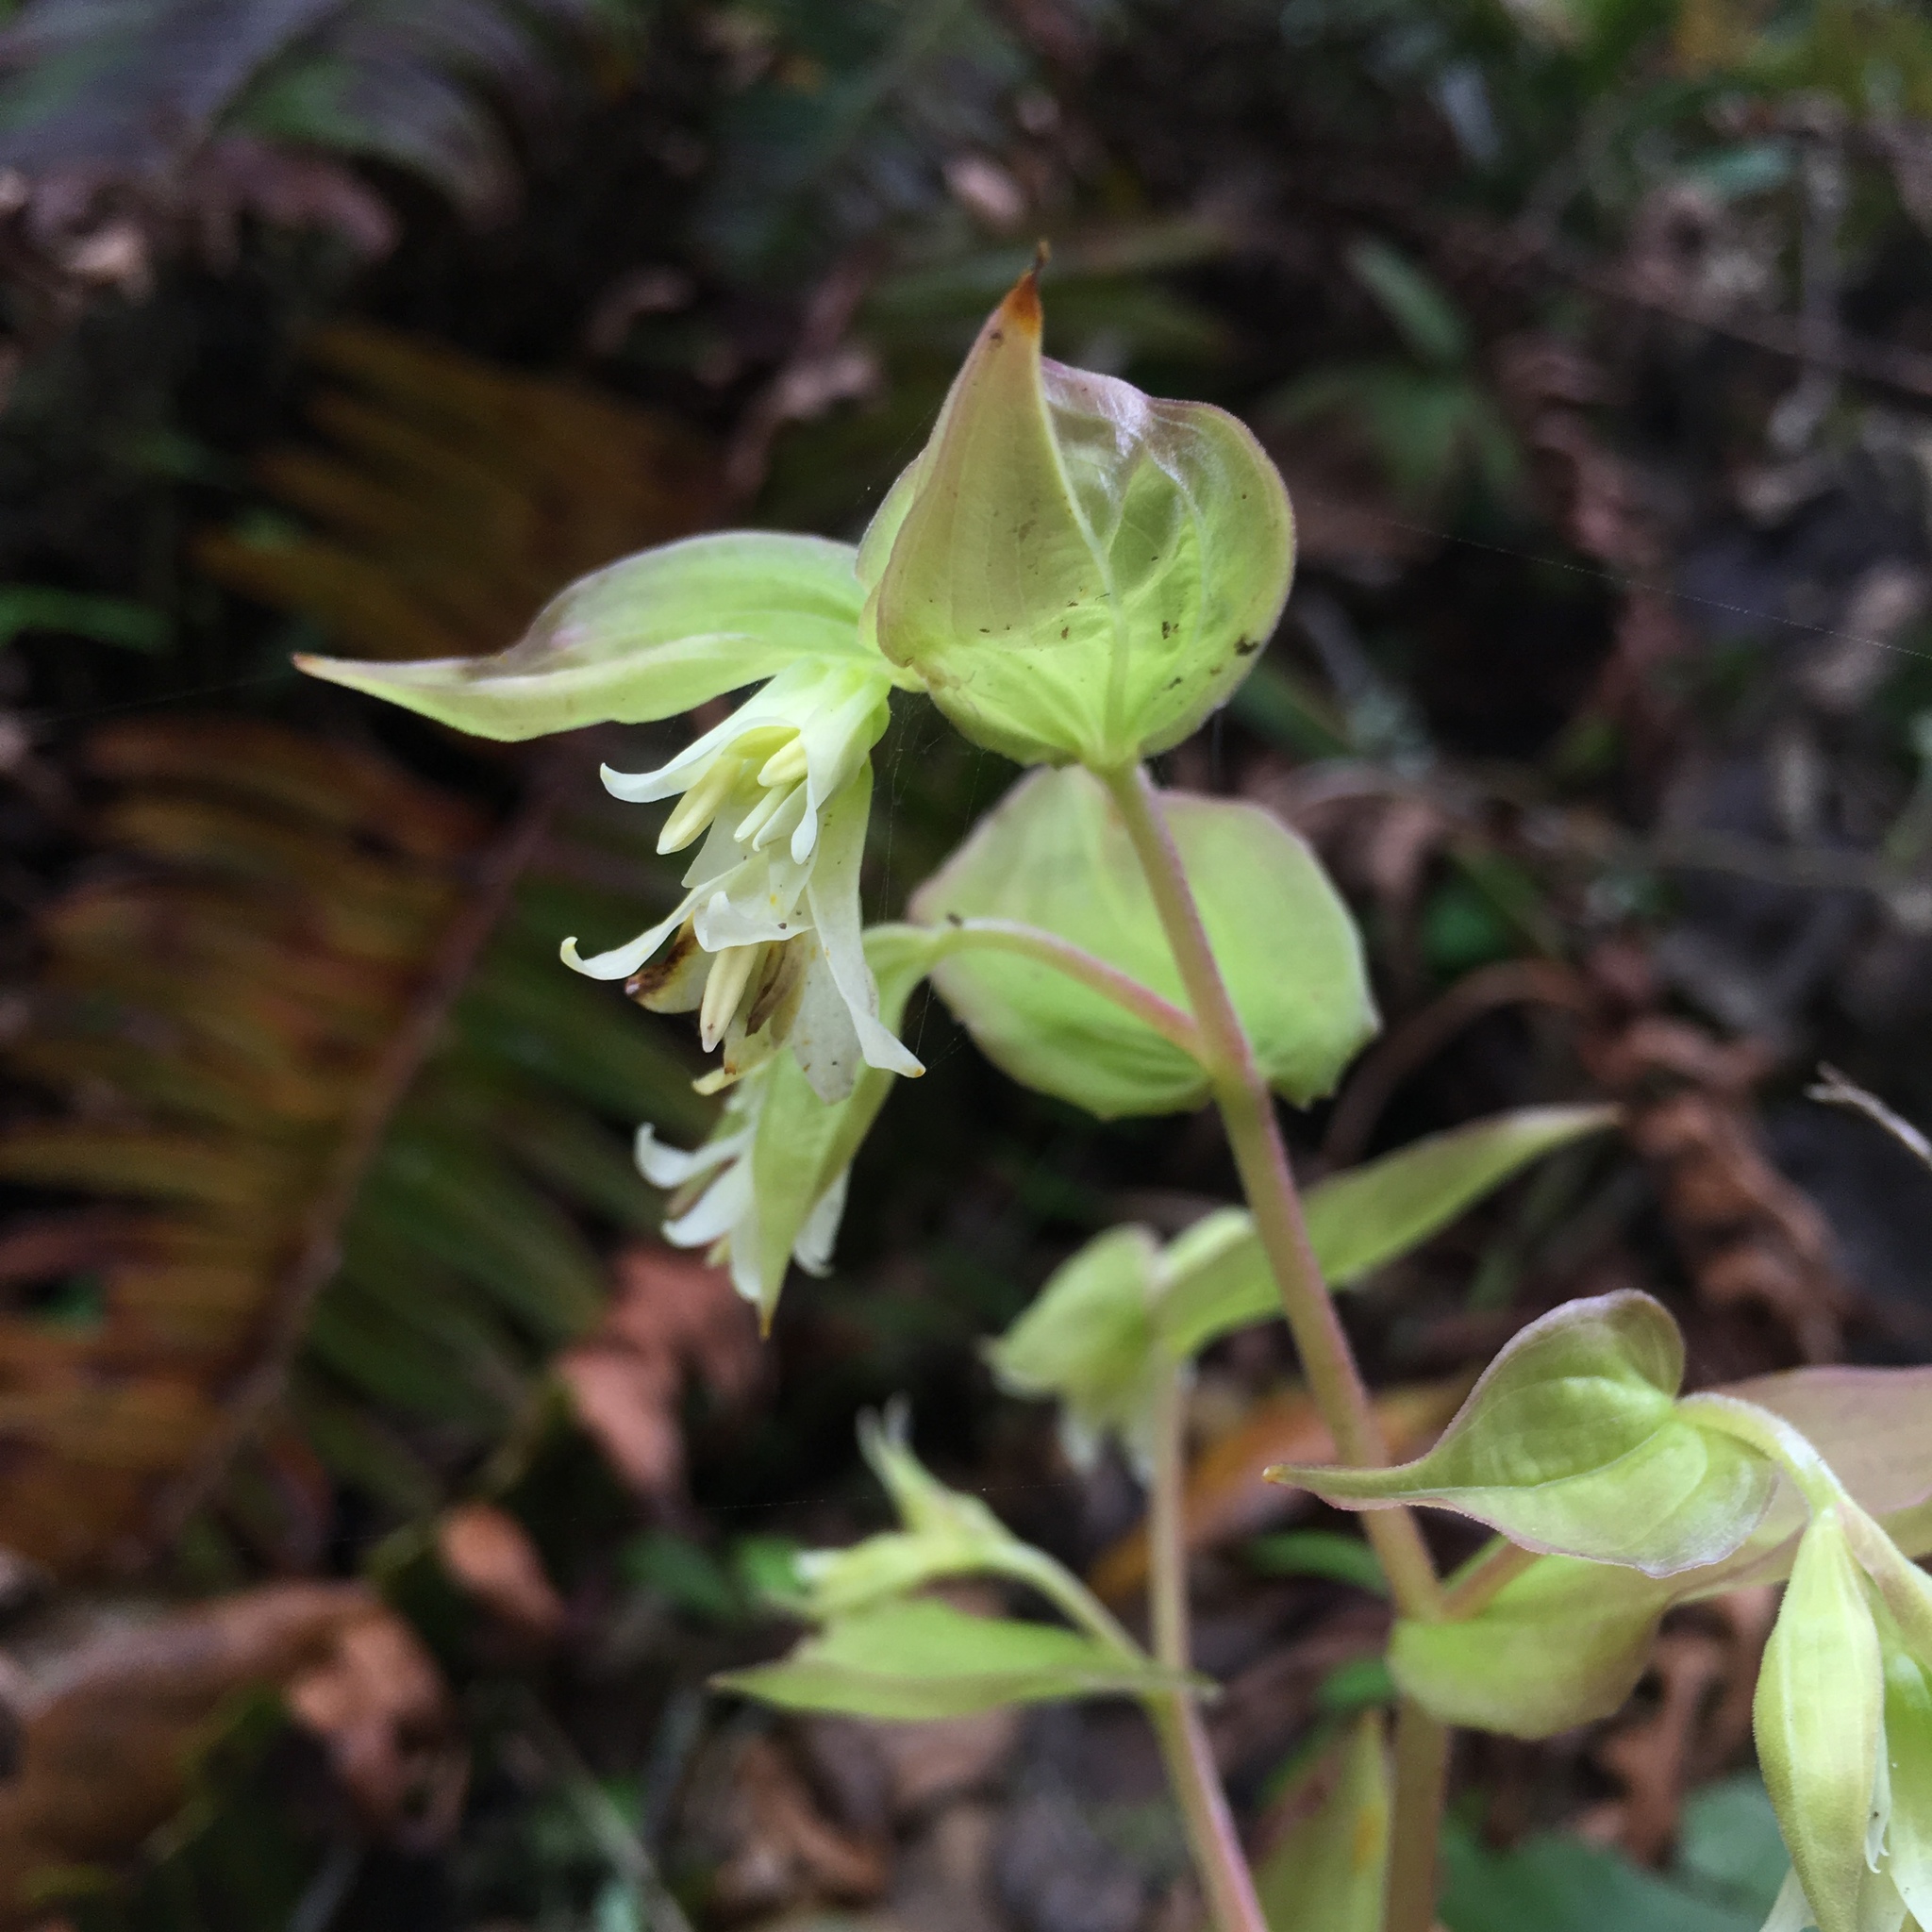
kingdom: Plantae
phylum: Tracheophyta
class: Liliopsida
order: Liliales
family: Liliaceae
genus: Prosartes
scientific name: Prosartes hookeri
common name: Fairy-bells
